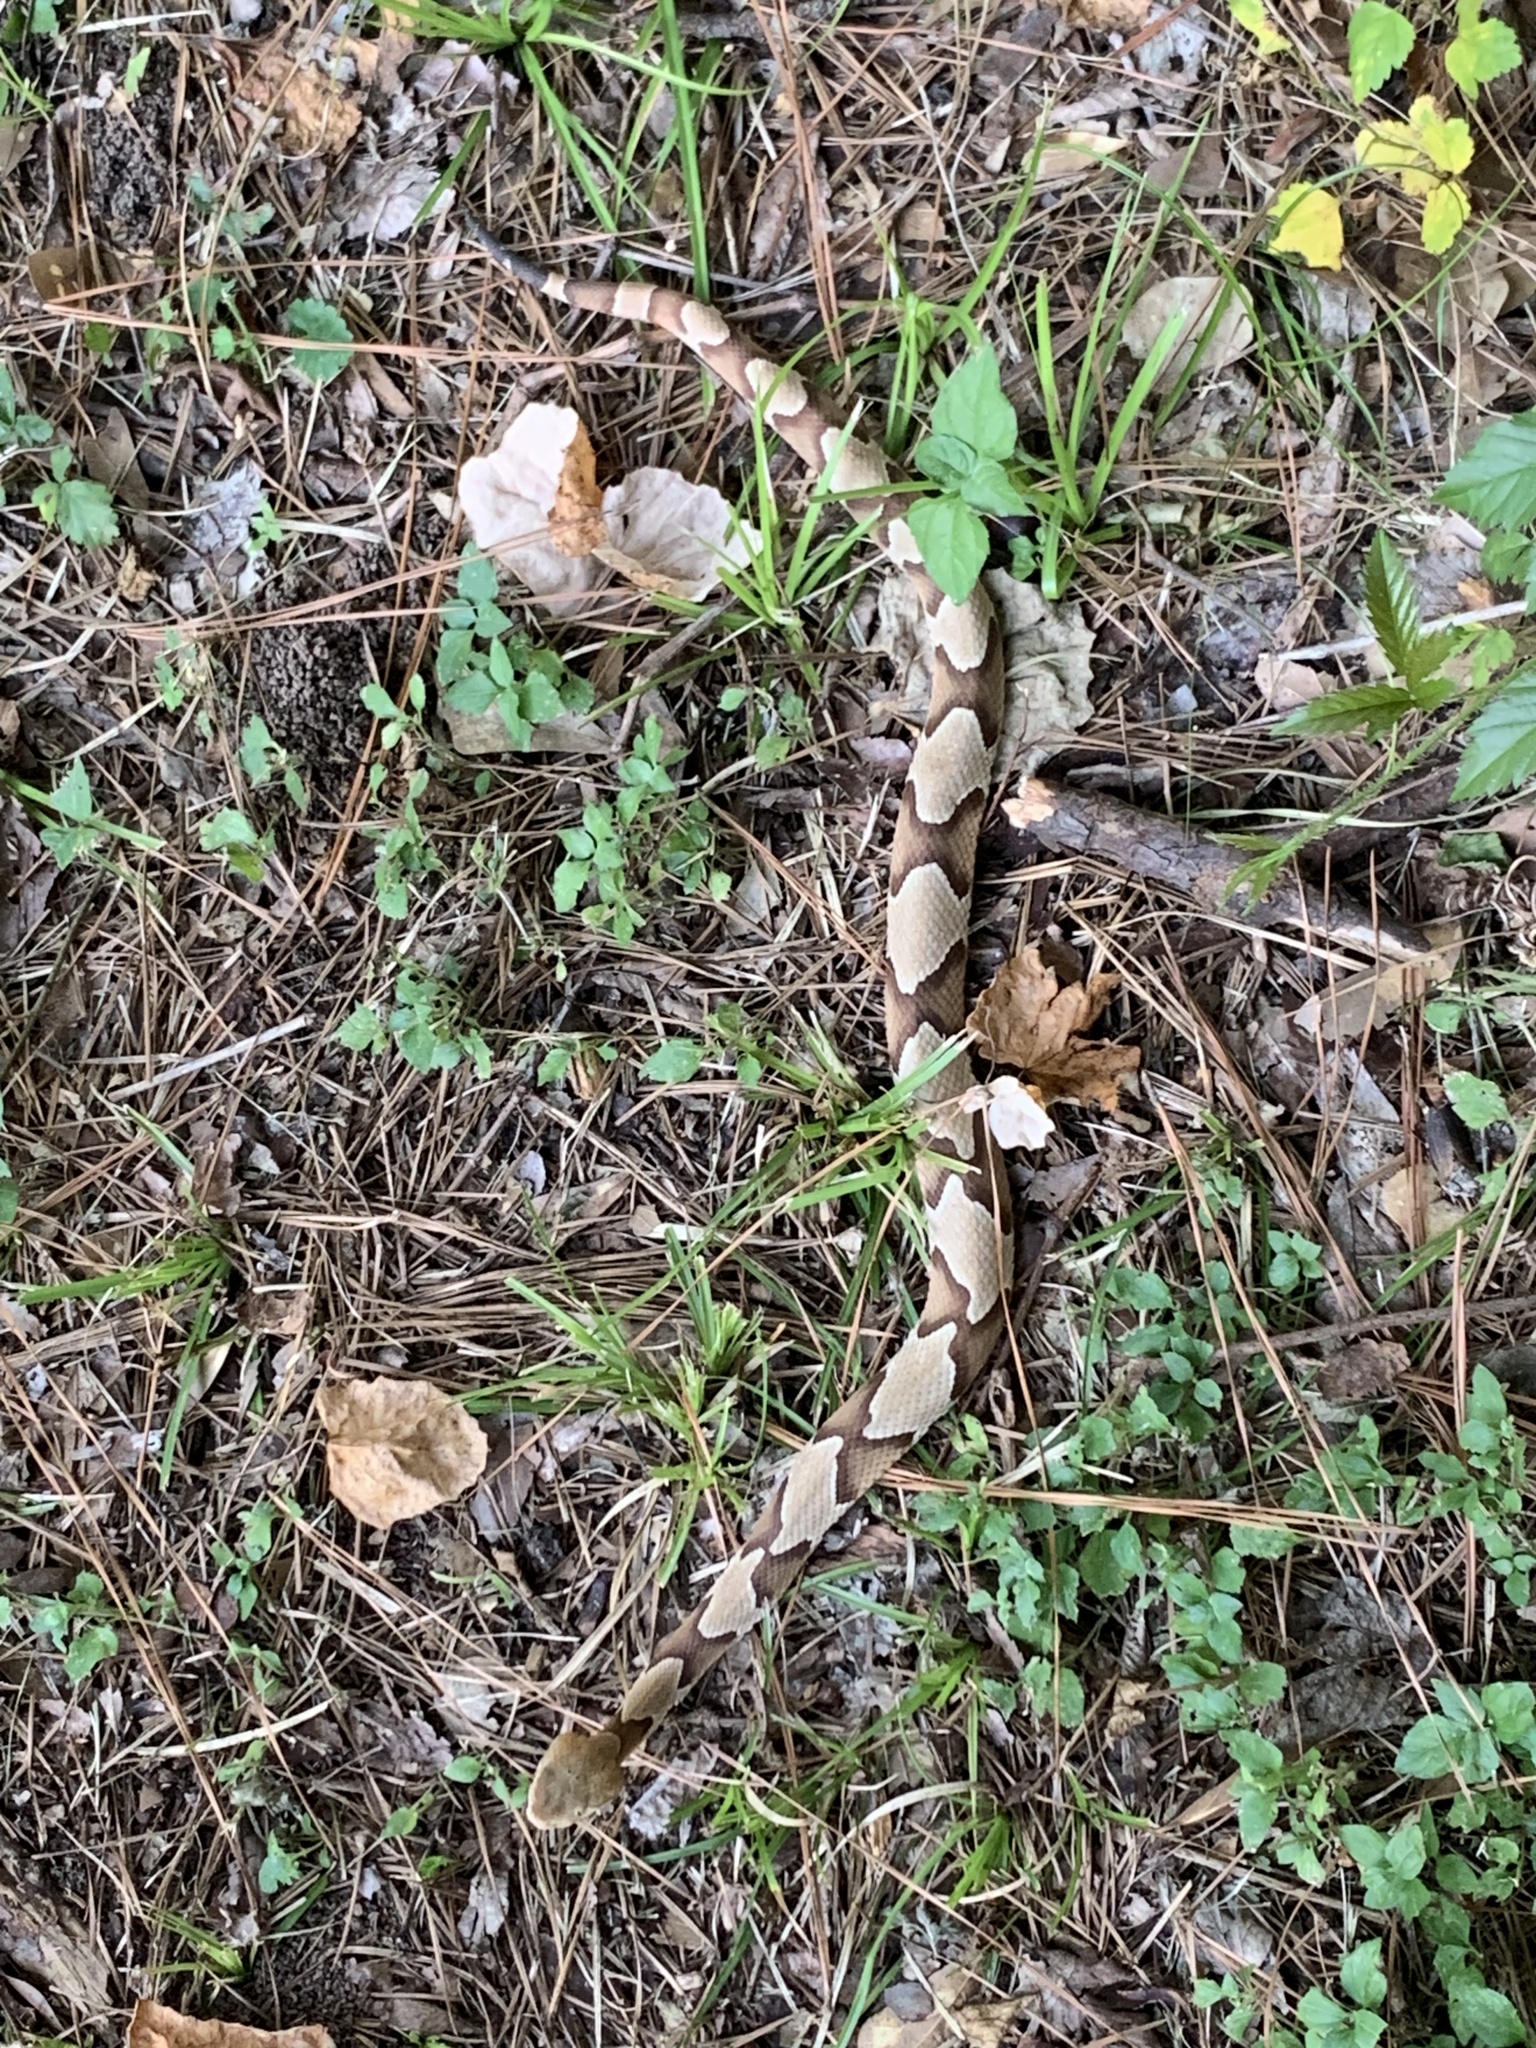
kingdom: Animalia
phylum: Chordata
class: Squamata
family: Viperidae
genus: Agkistrodon
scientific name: Agkistrodon contortrix
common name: Northern copperhead
